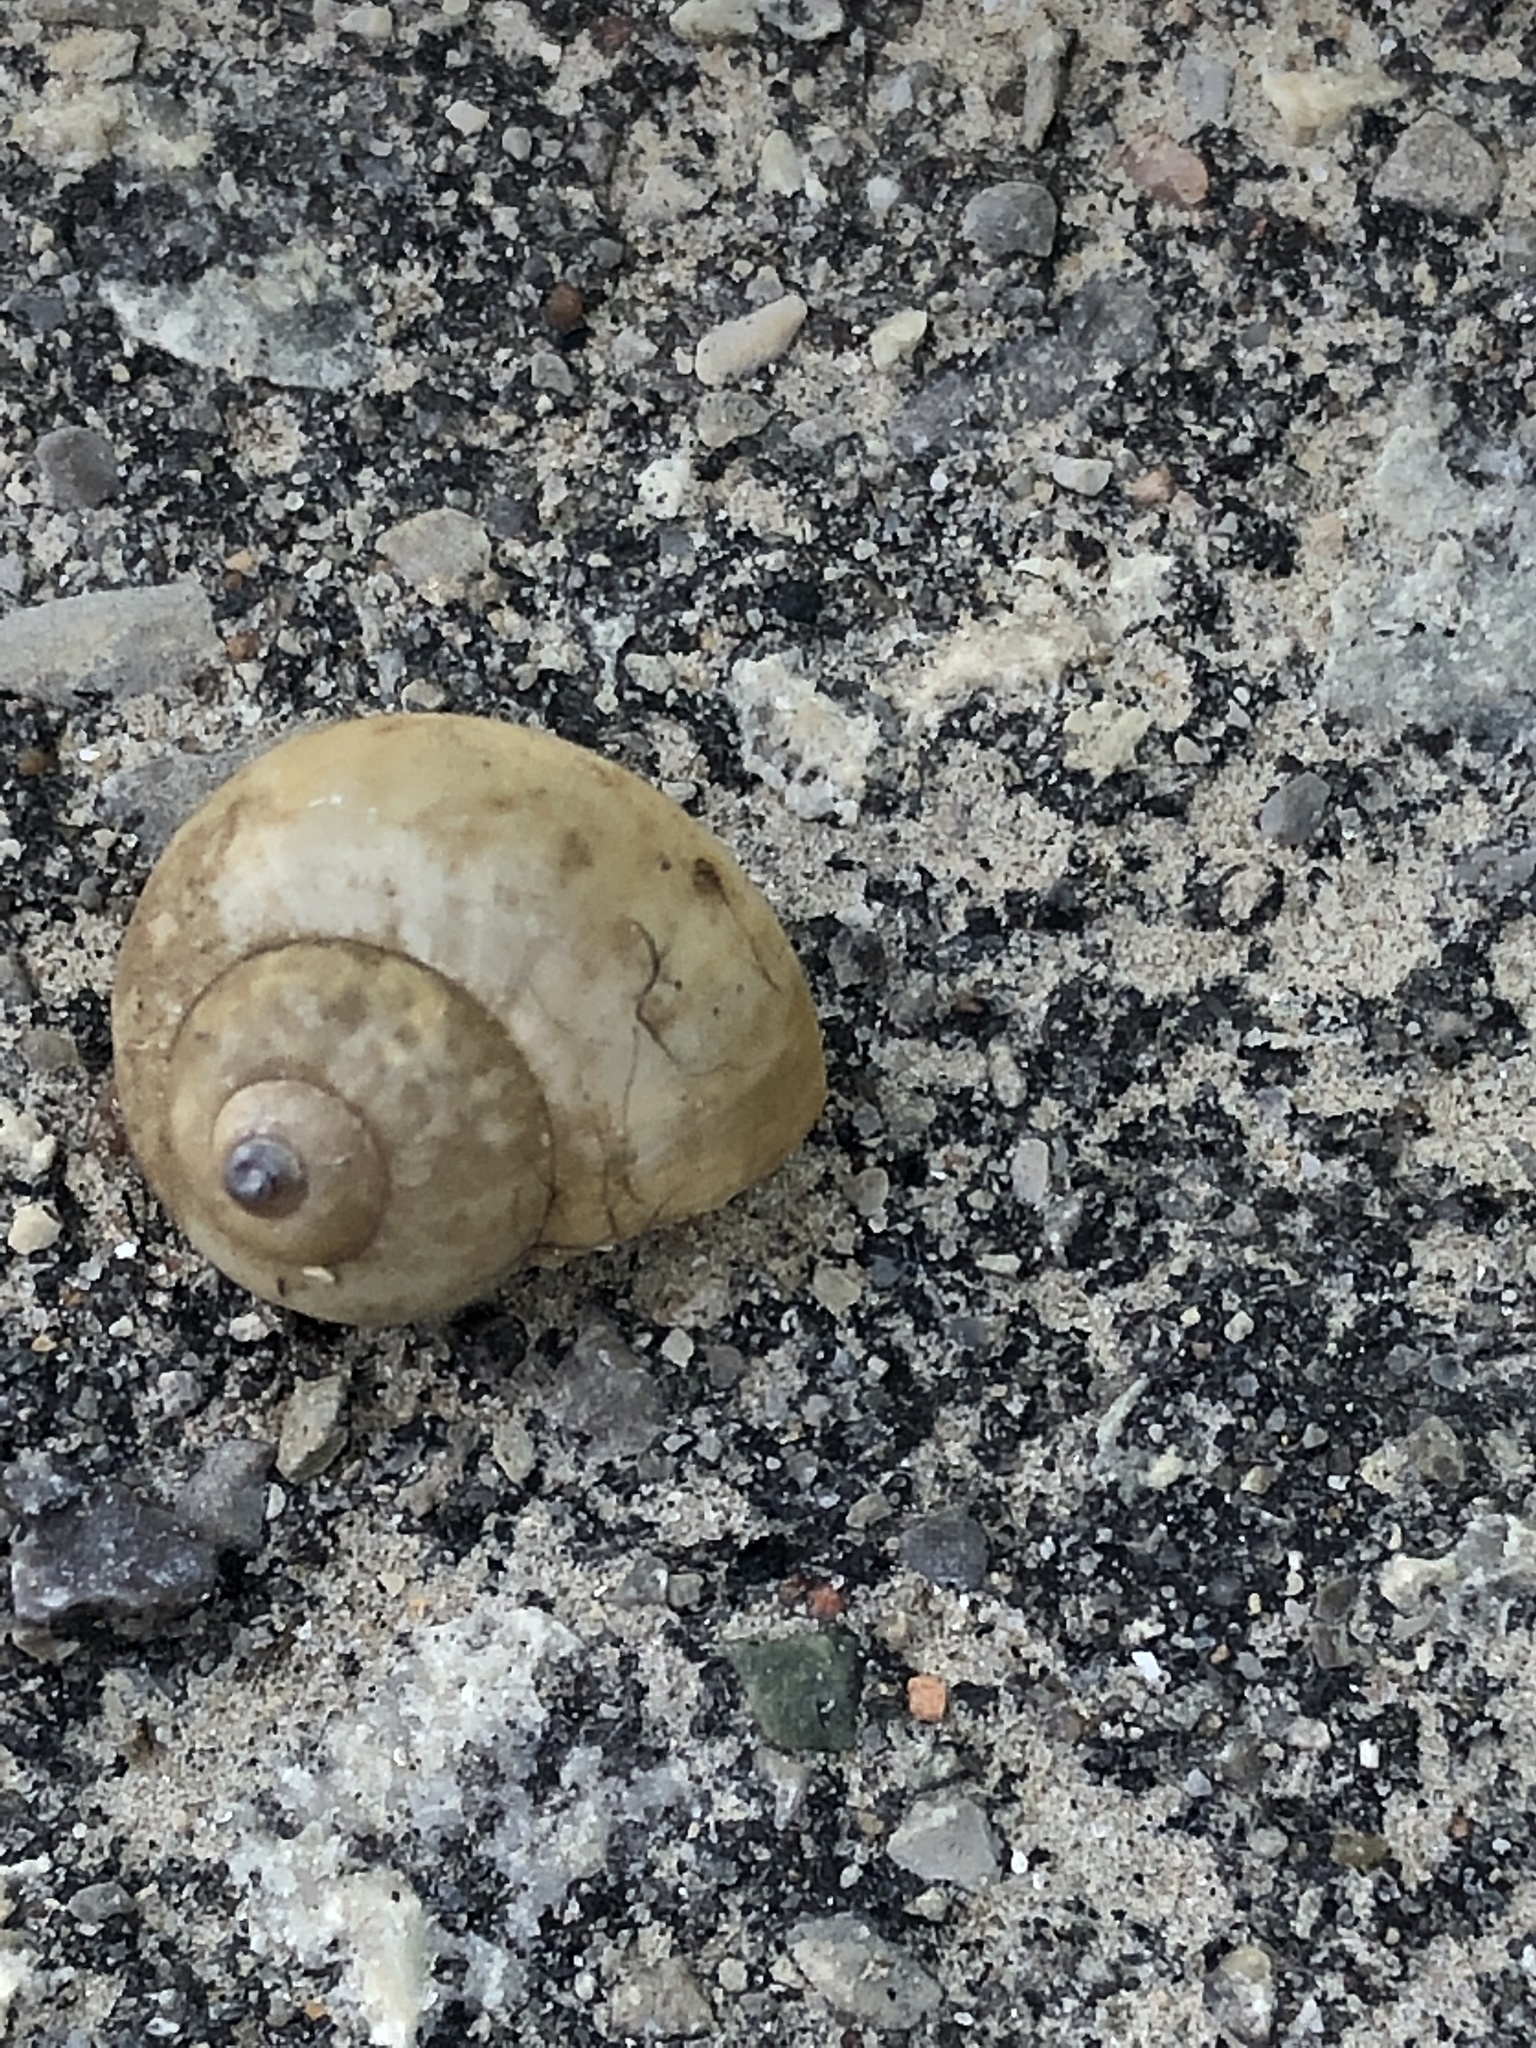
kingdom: Animalia
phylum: Mollusca
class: Gastropoda
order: Architaenioglossa
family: Viviparidae
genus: Cipangopaludina
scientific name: Cipangopaludina chinensis
